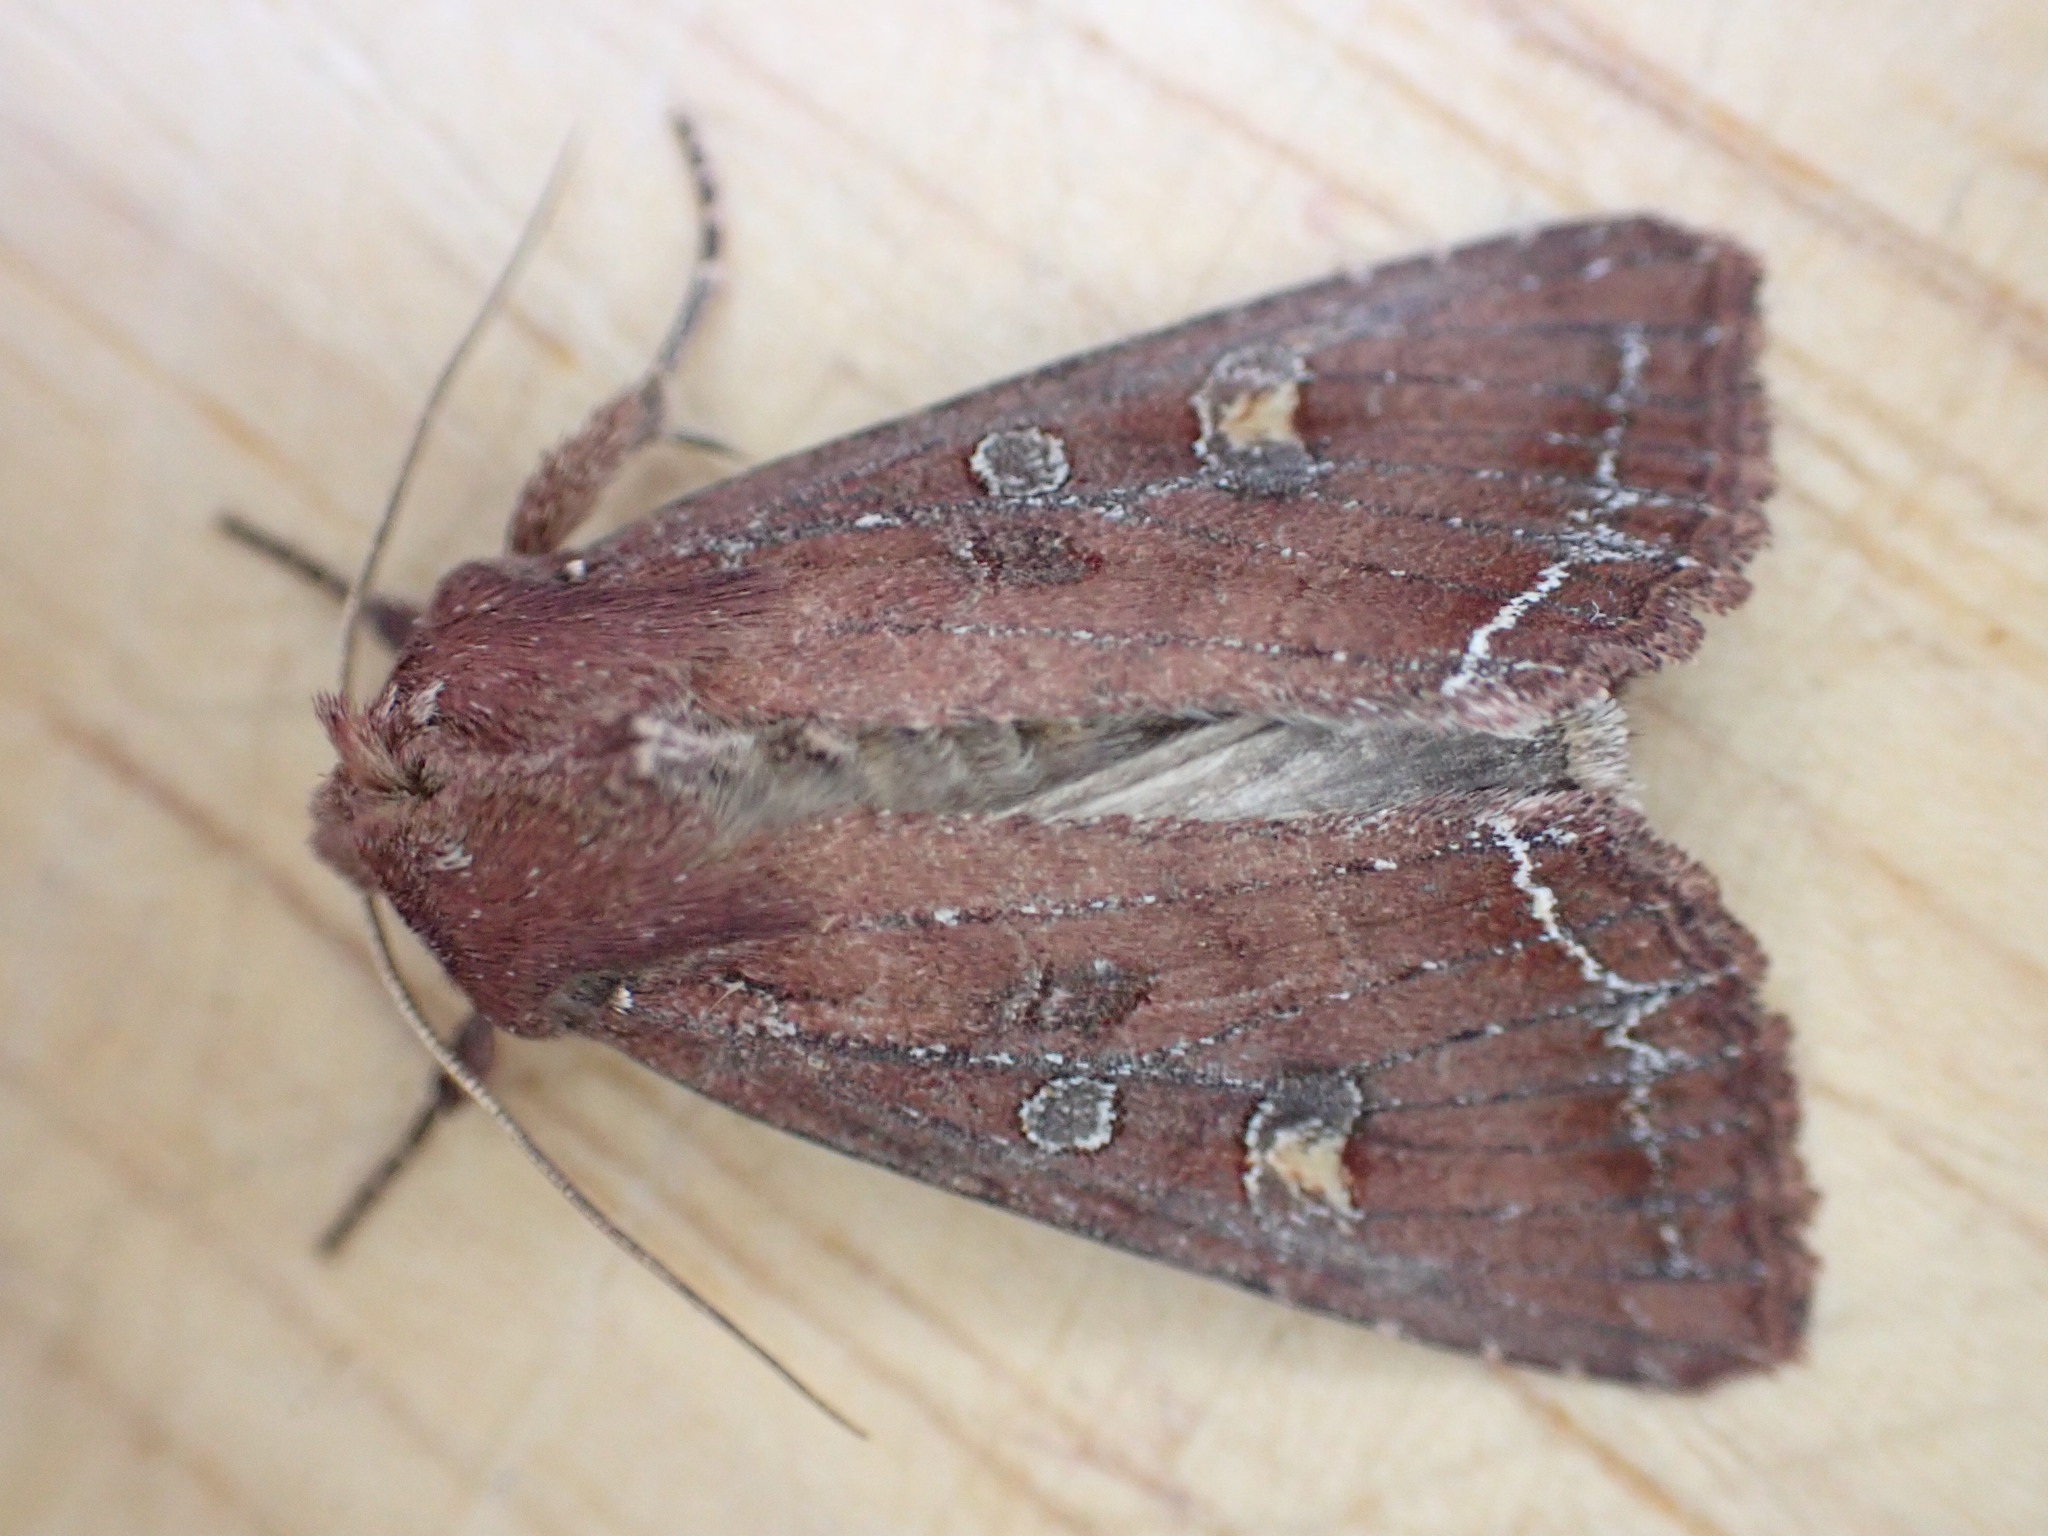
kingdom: Animalia
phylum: Arthropoda
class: Insecta
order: Lepidoptera
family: Noctuidae
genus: Lacanobia
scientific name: Lacanobia oleracea
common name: Bright-line brown-eye
